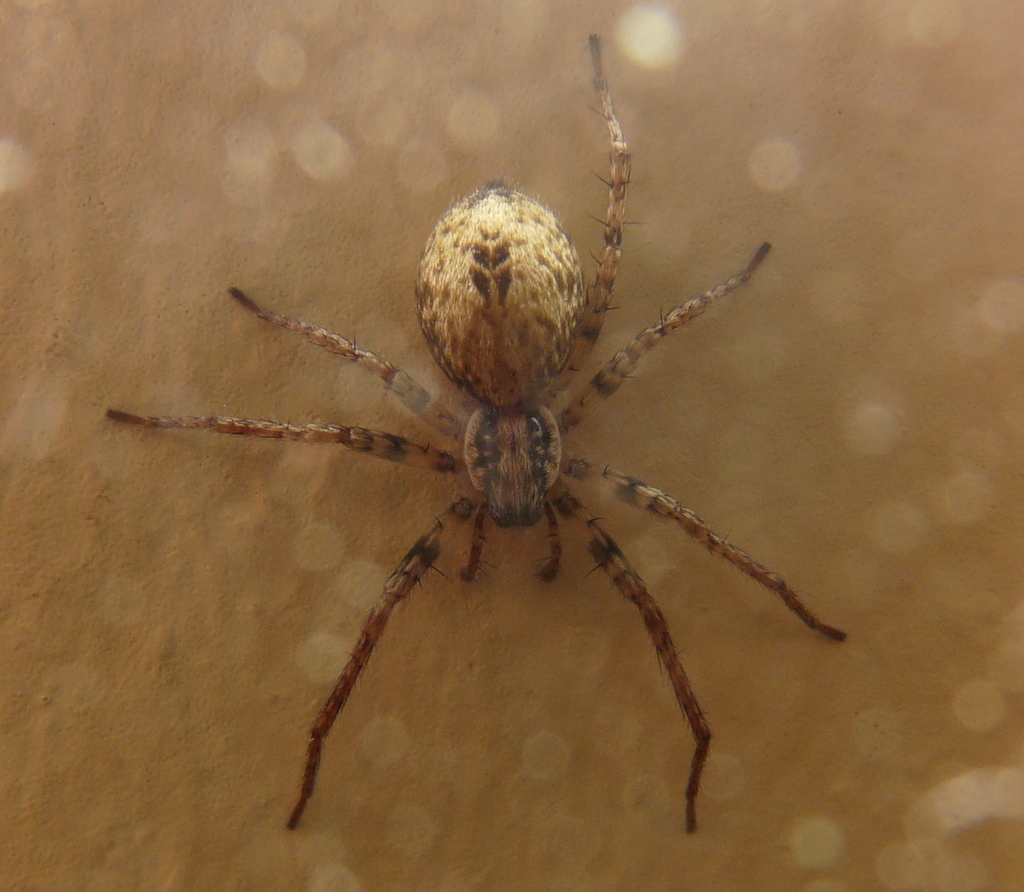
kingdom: Animalia
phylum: Arthropoda
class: Arachnida
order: Araneae
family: Anyphaenidae
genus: Anyphaena
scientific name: Anyphaena accentuata
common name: Buzzing spider
